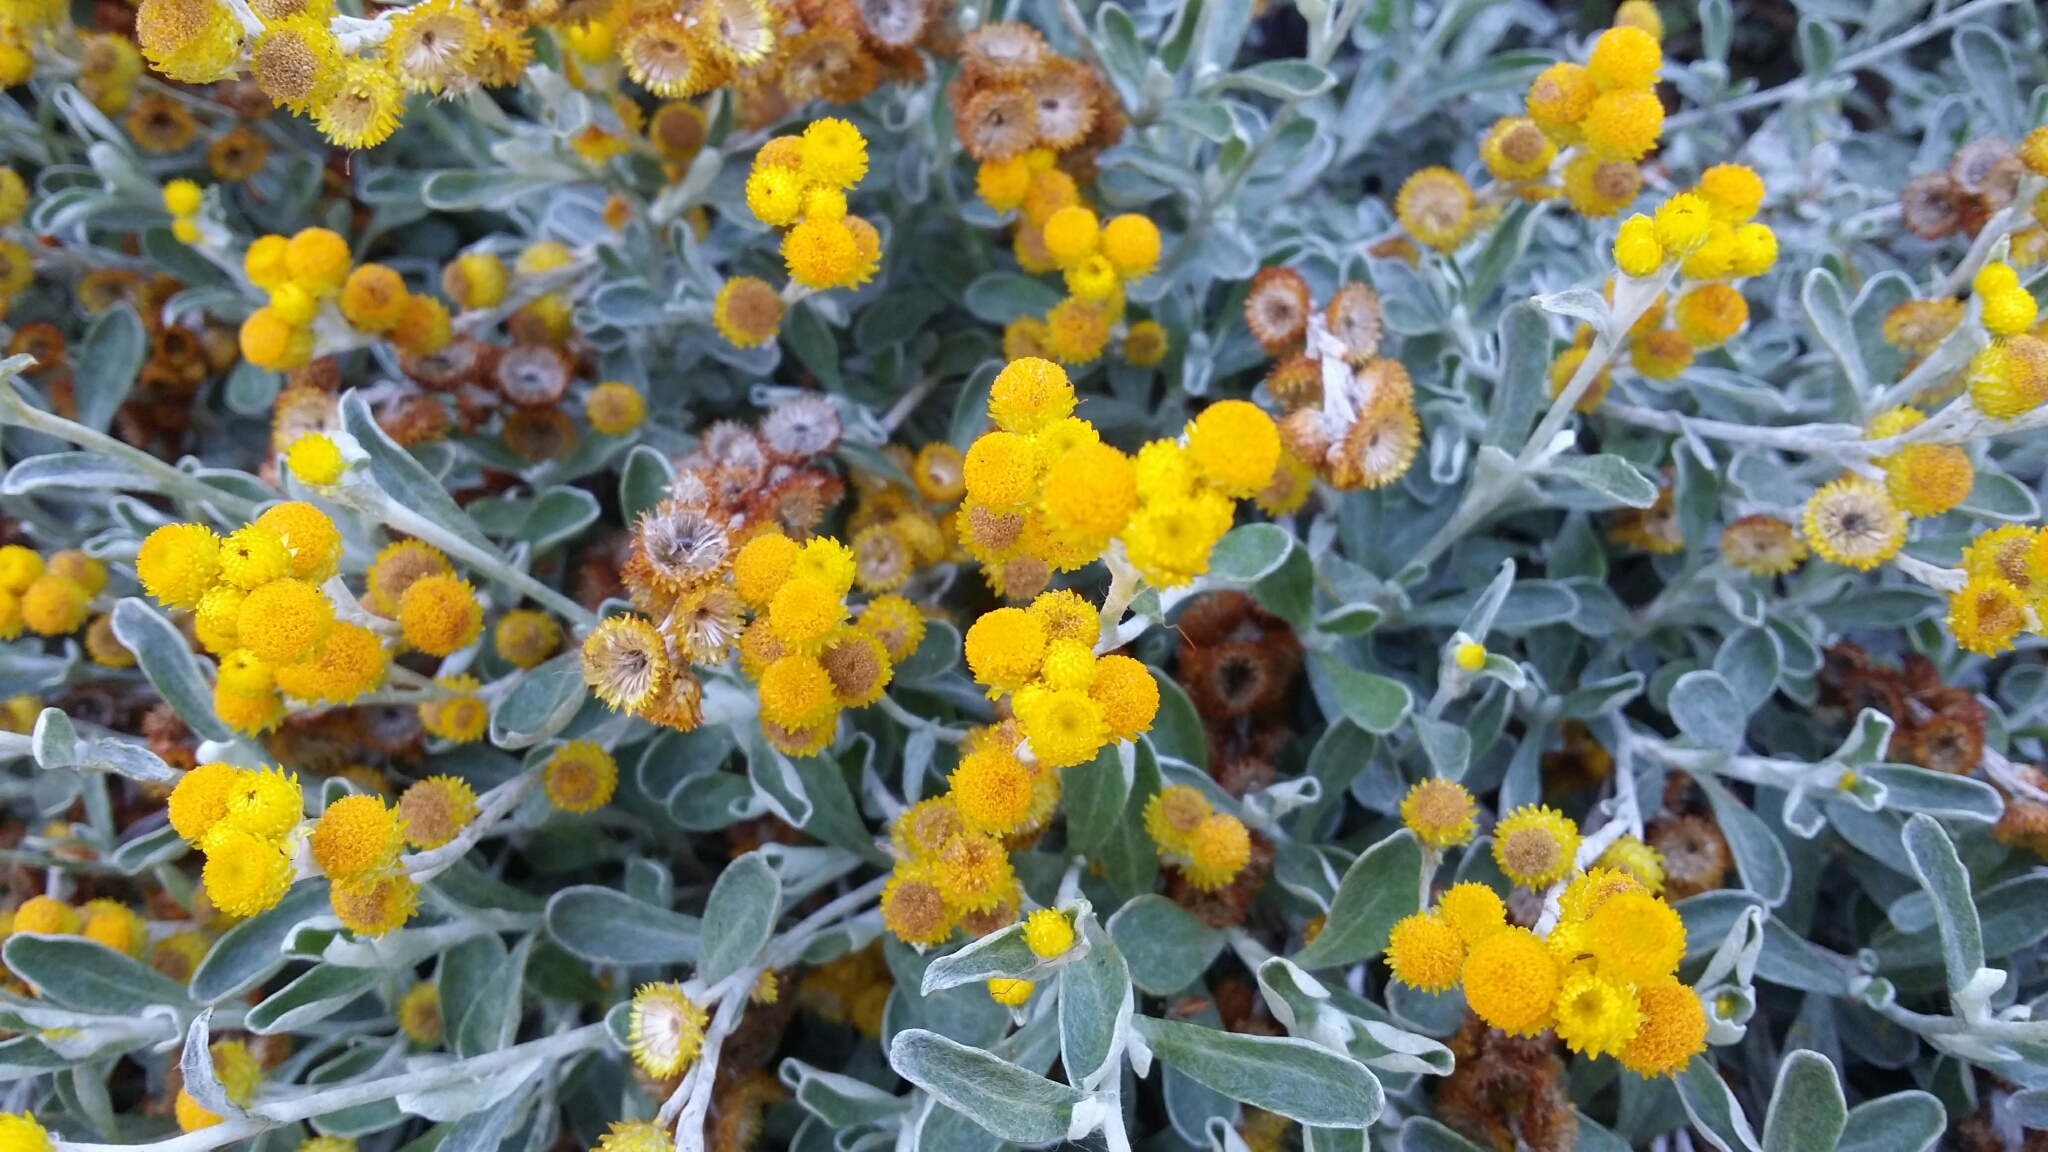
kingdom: Plantae
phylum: Tracheophyta
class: Magnoliopsida
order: Asterales
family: Asteraceae
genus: Chrysocephalum
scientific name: Chrysocephalum apiculatum
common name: Common everlasting
